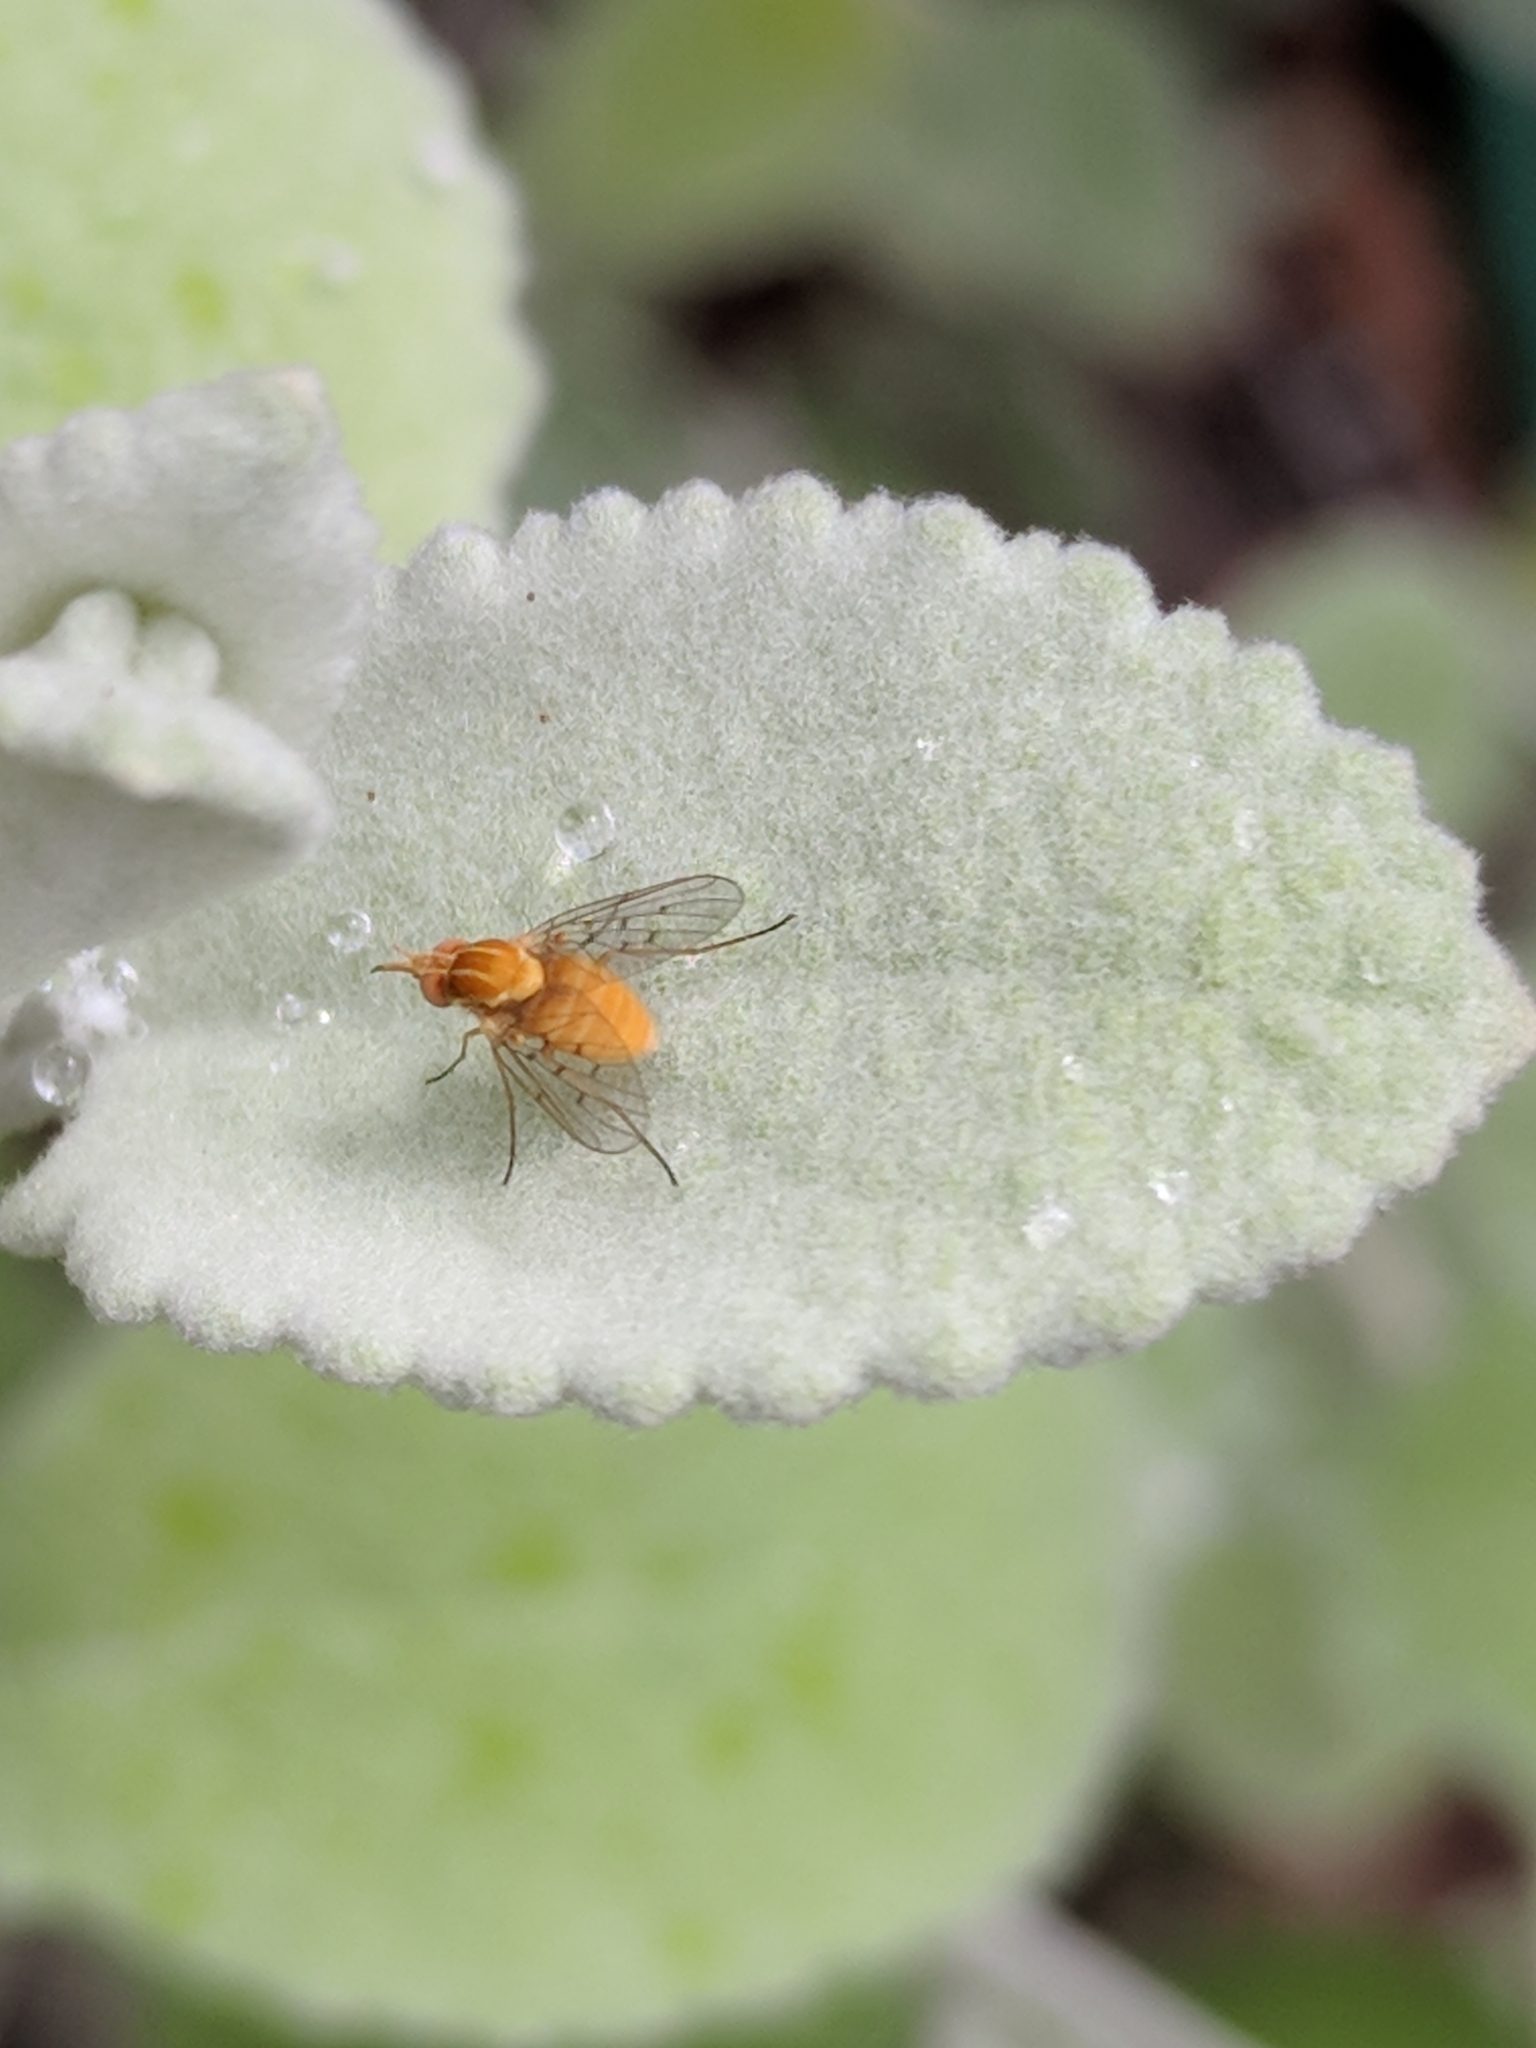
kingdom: Animalia
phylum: Arthropoda
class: Insecta
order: Diptera
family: Bombyliidae
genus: Poecilognathus
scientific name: Poecilognathus unimaculatus
